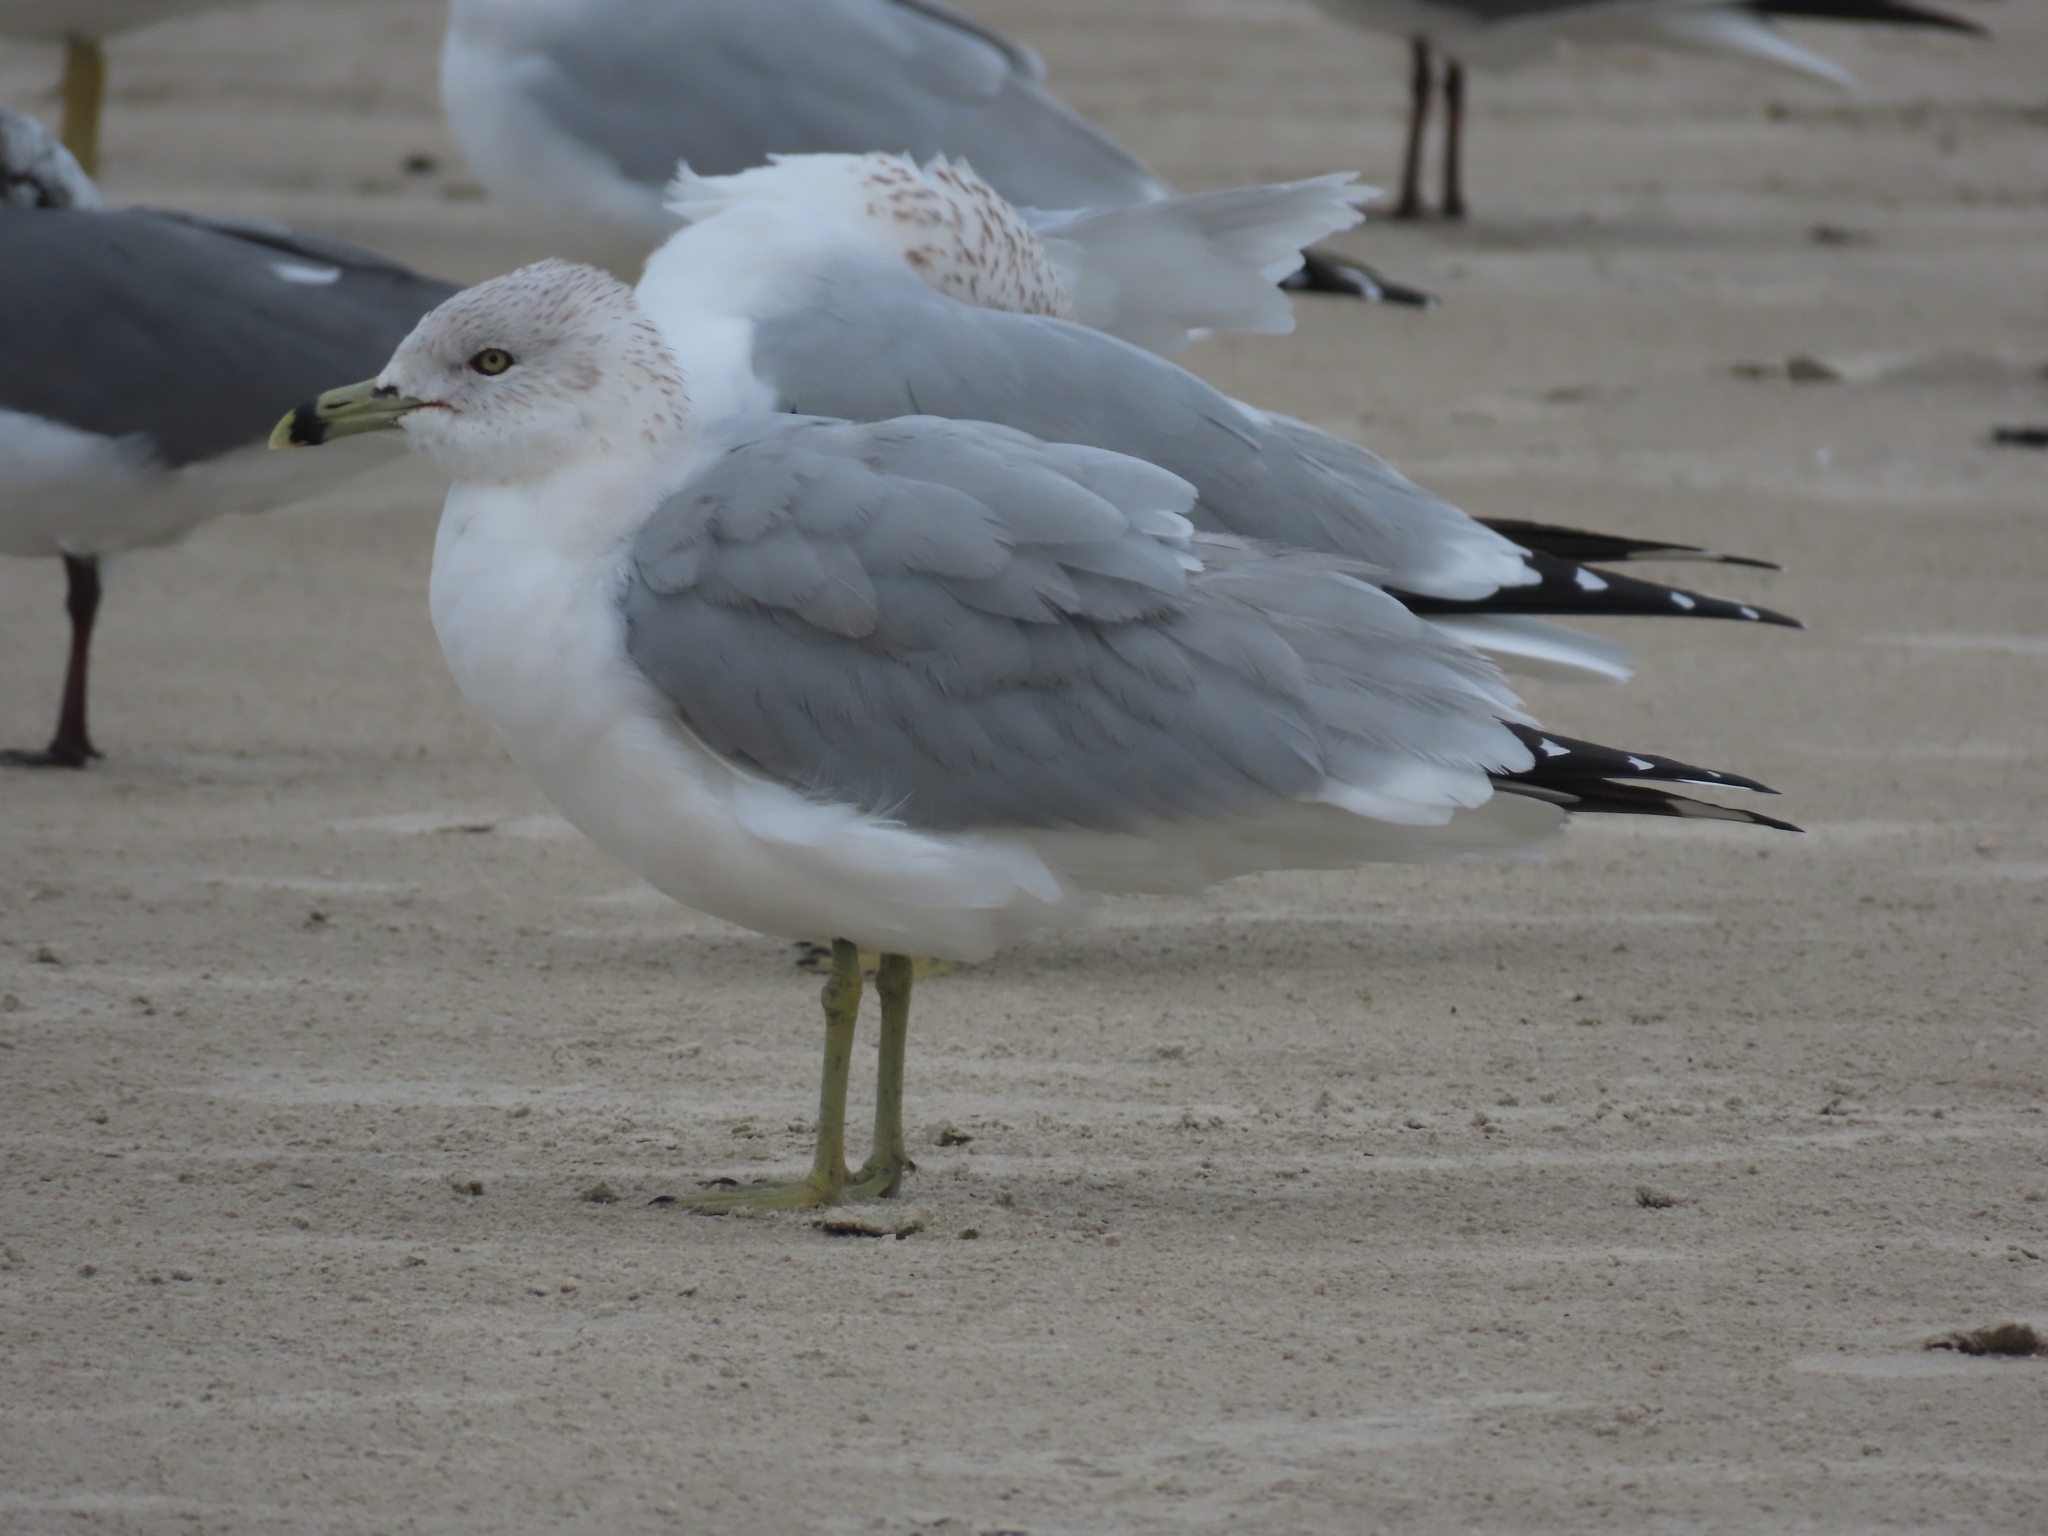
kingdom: Animalia
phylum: Chordata
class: Aves
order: Charadriiformes
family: Laridae
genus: Larus
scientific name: Larus delawarensis
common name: Ring-billed gull
